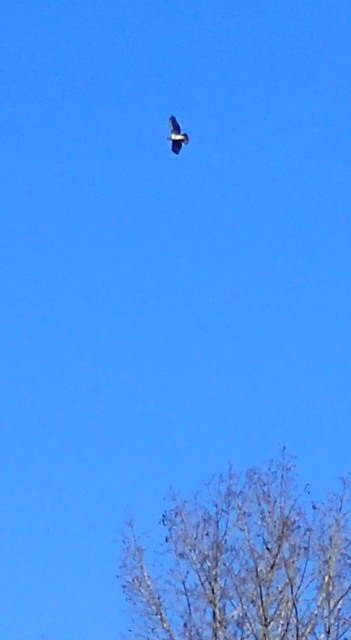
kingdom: Animalia
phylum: Chordata
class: Aves
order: Accipitriformes
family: Accipitridae
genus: Buteo
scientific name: Buteo jamaicensis
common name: Red-tailed hawk
